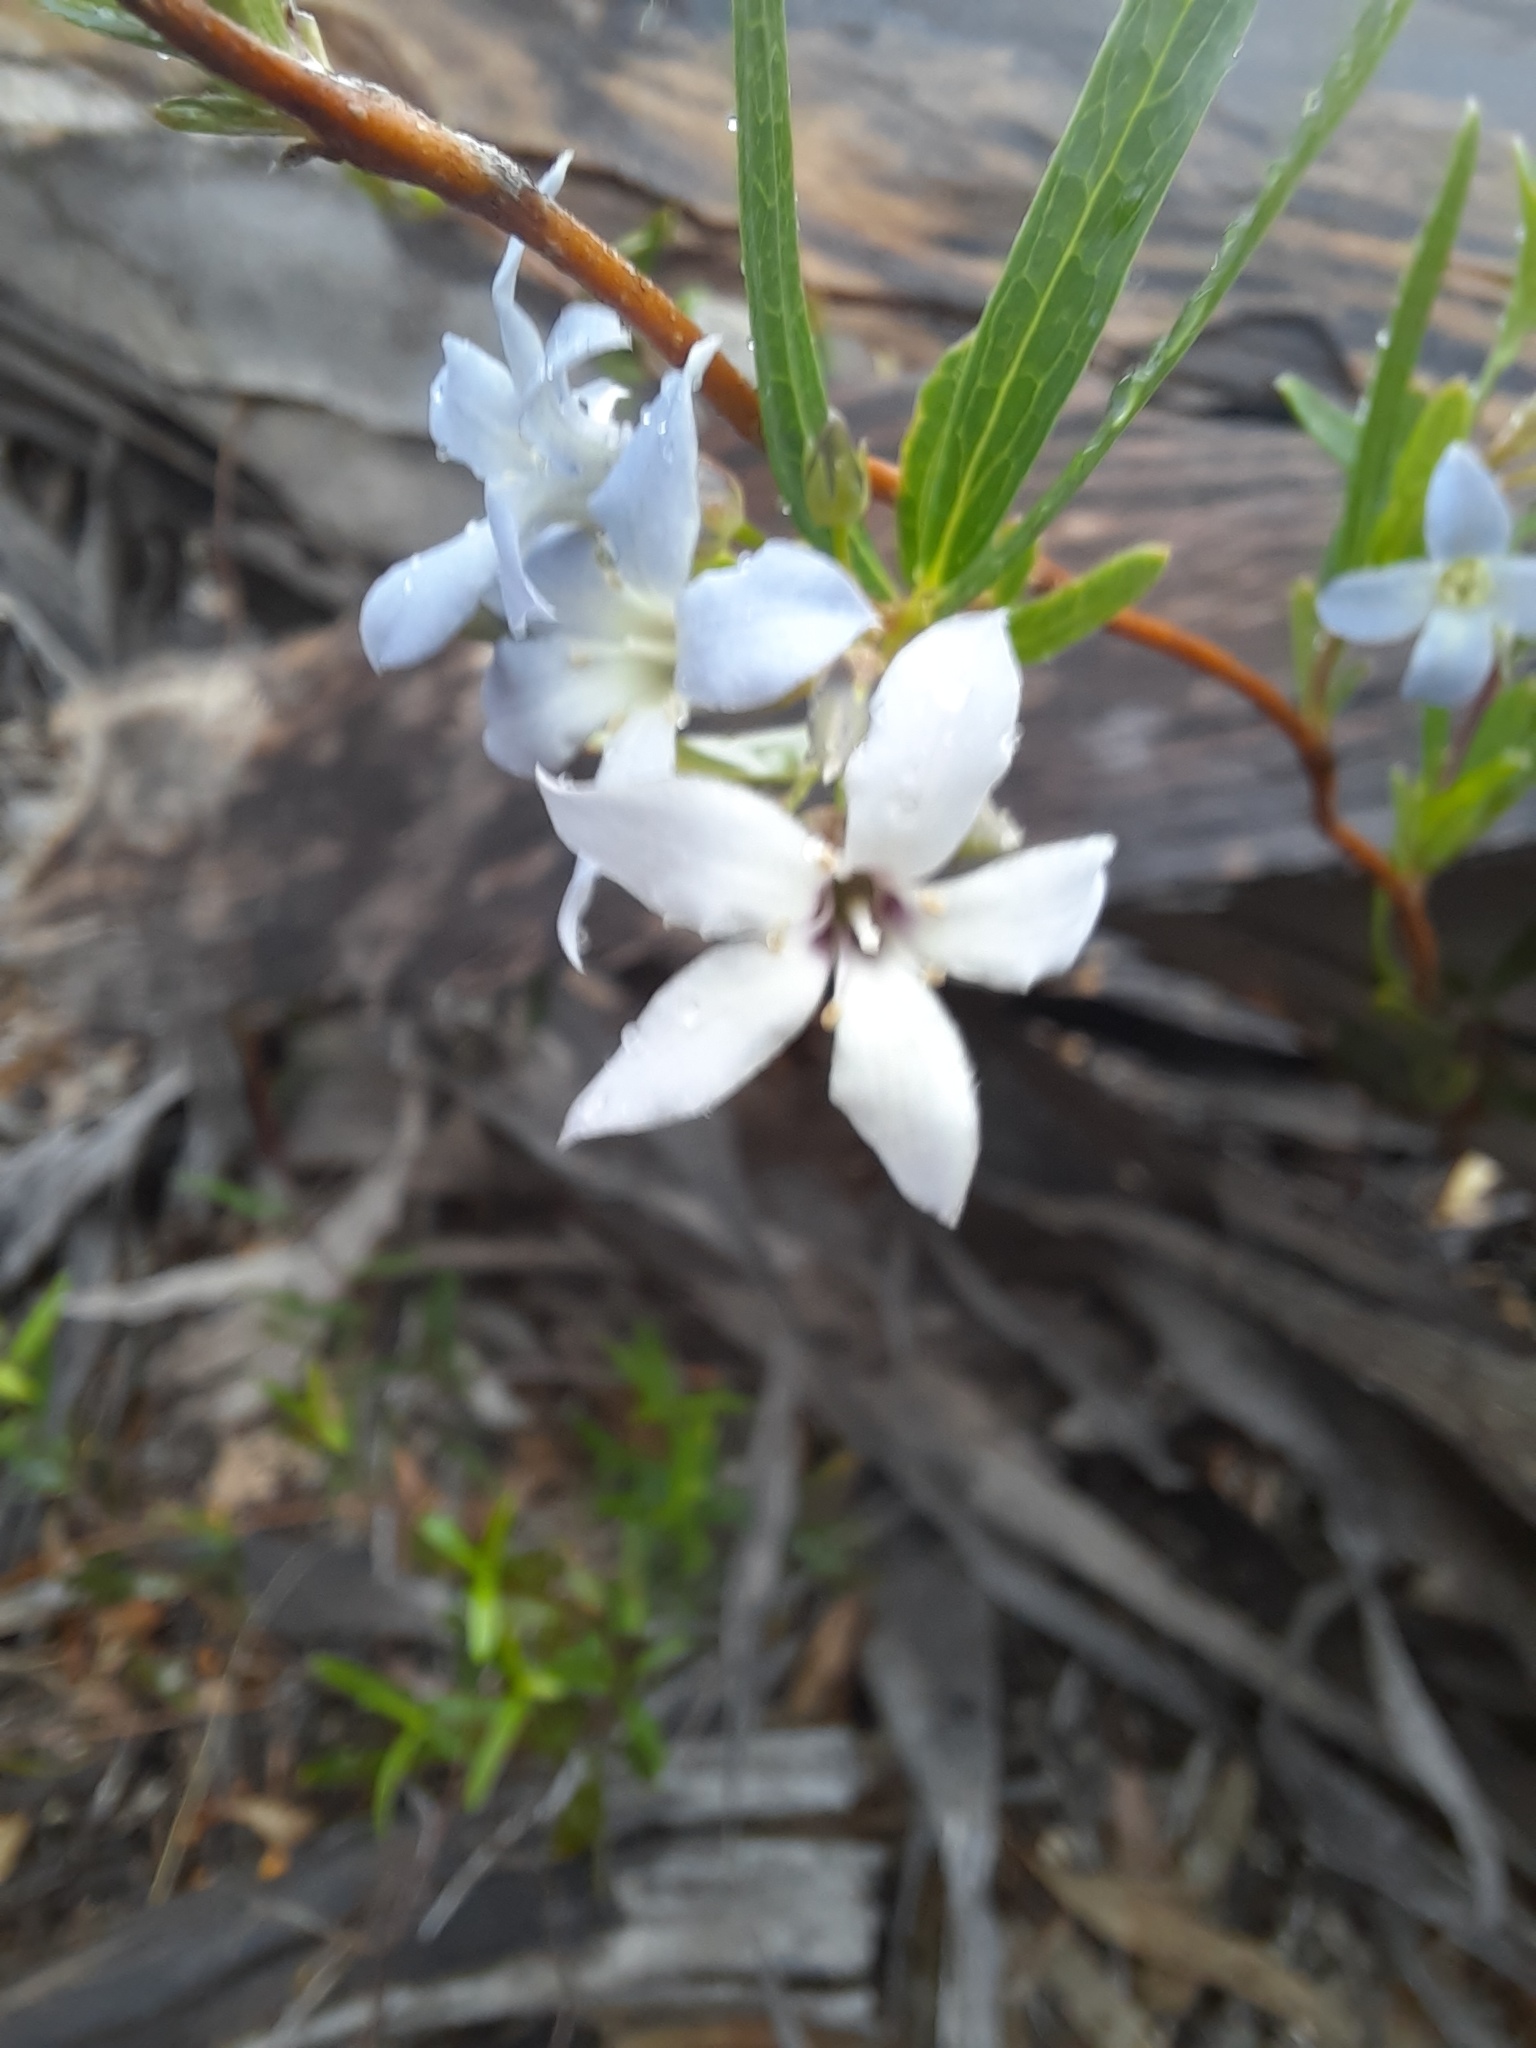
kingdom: Plantae
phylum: Tracheophyta
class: Magnoliopsida
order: Apiales
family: Pittosporaceae
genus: Billardiera
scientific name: Billardiera cymosa
